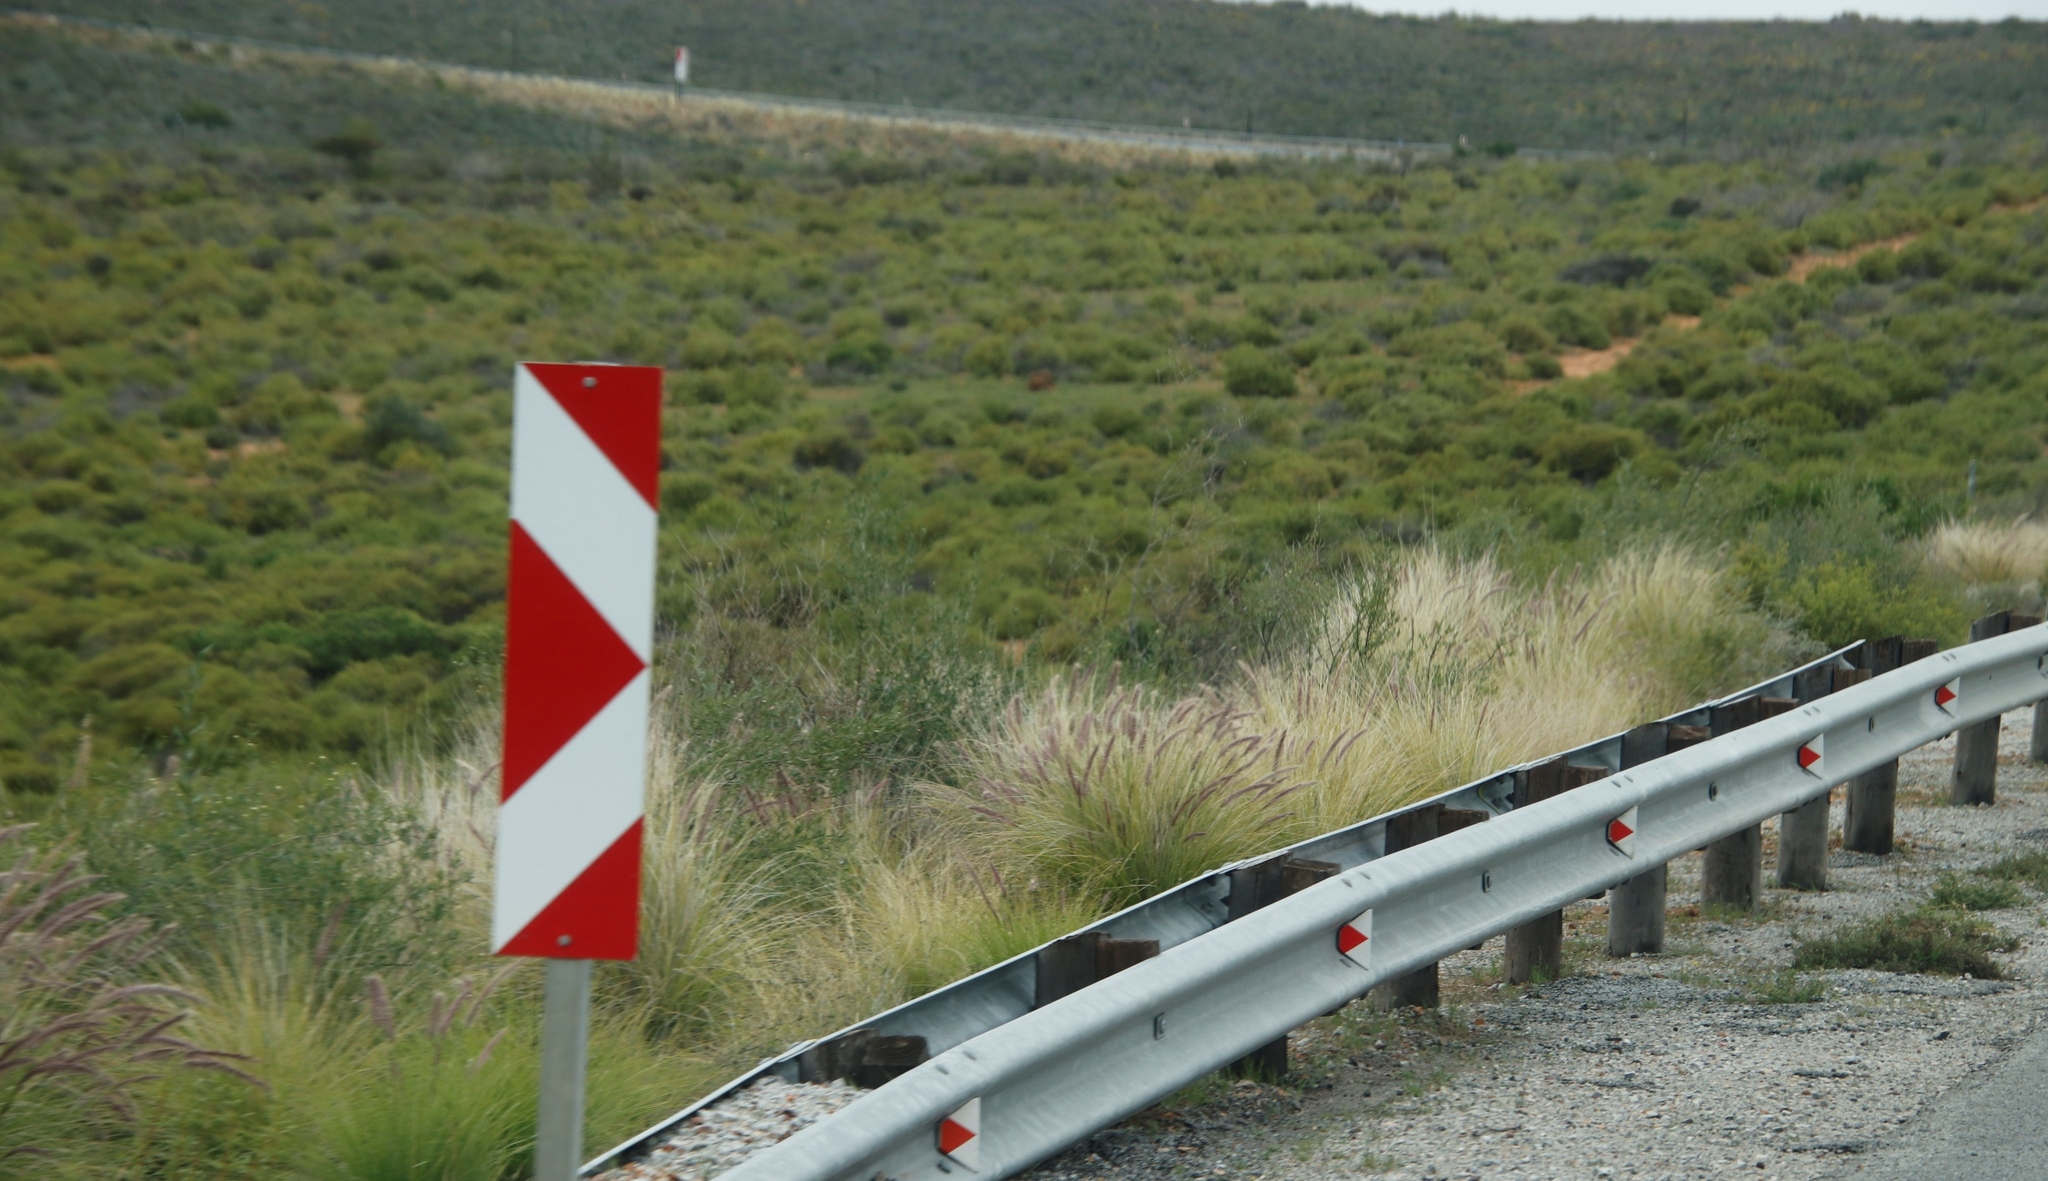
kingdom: Plantae
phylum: Tracheophyta
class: Liliopsida
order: Poales
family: Poaceae
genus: Cenchrus
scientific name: Cenchrus setaceus
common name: Crimson fountaingrass
